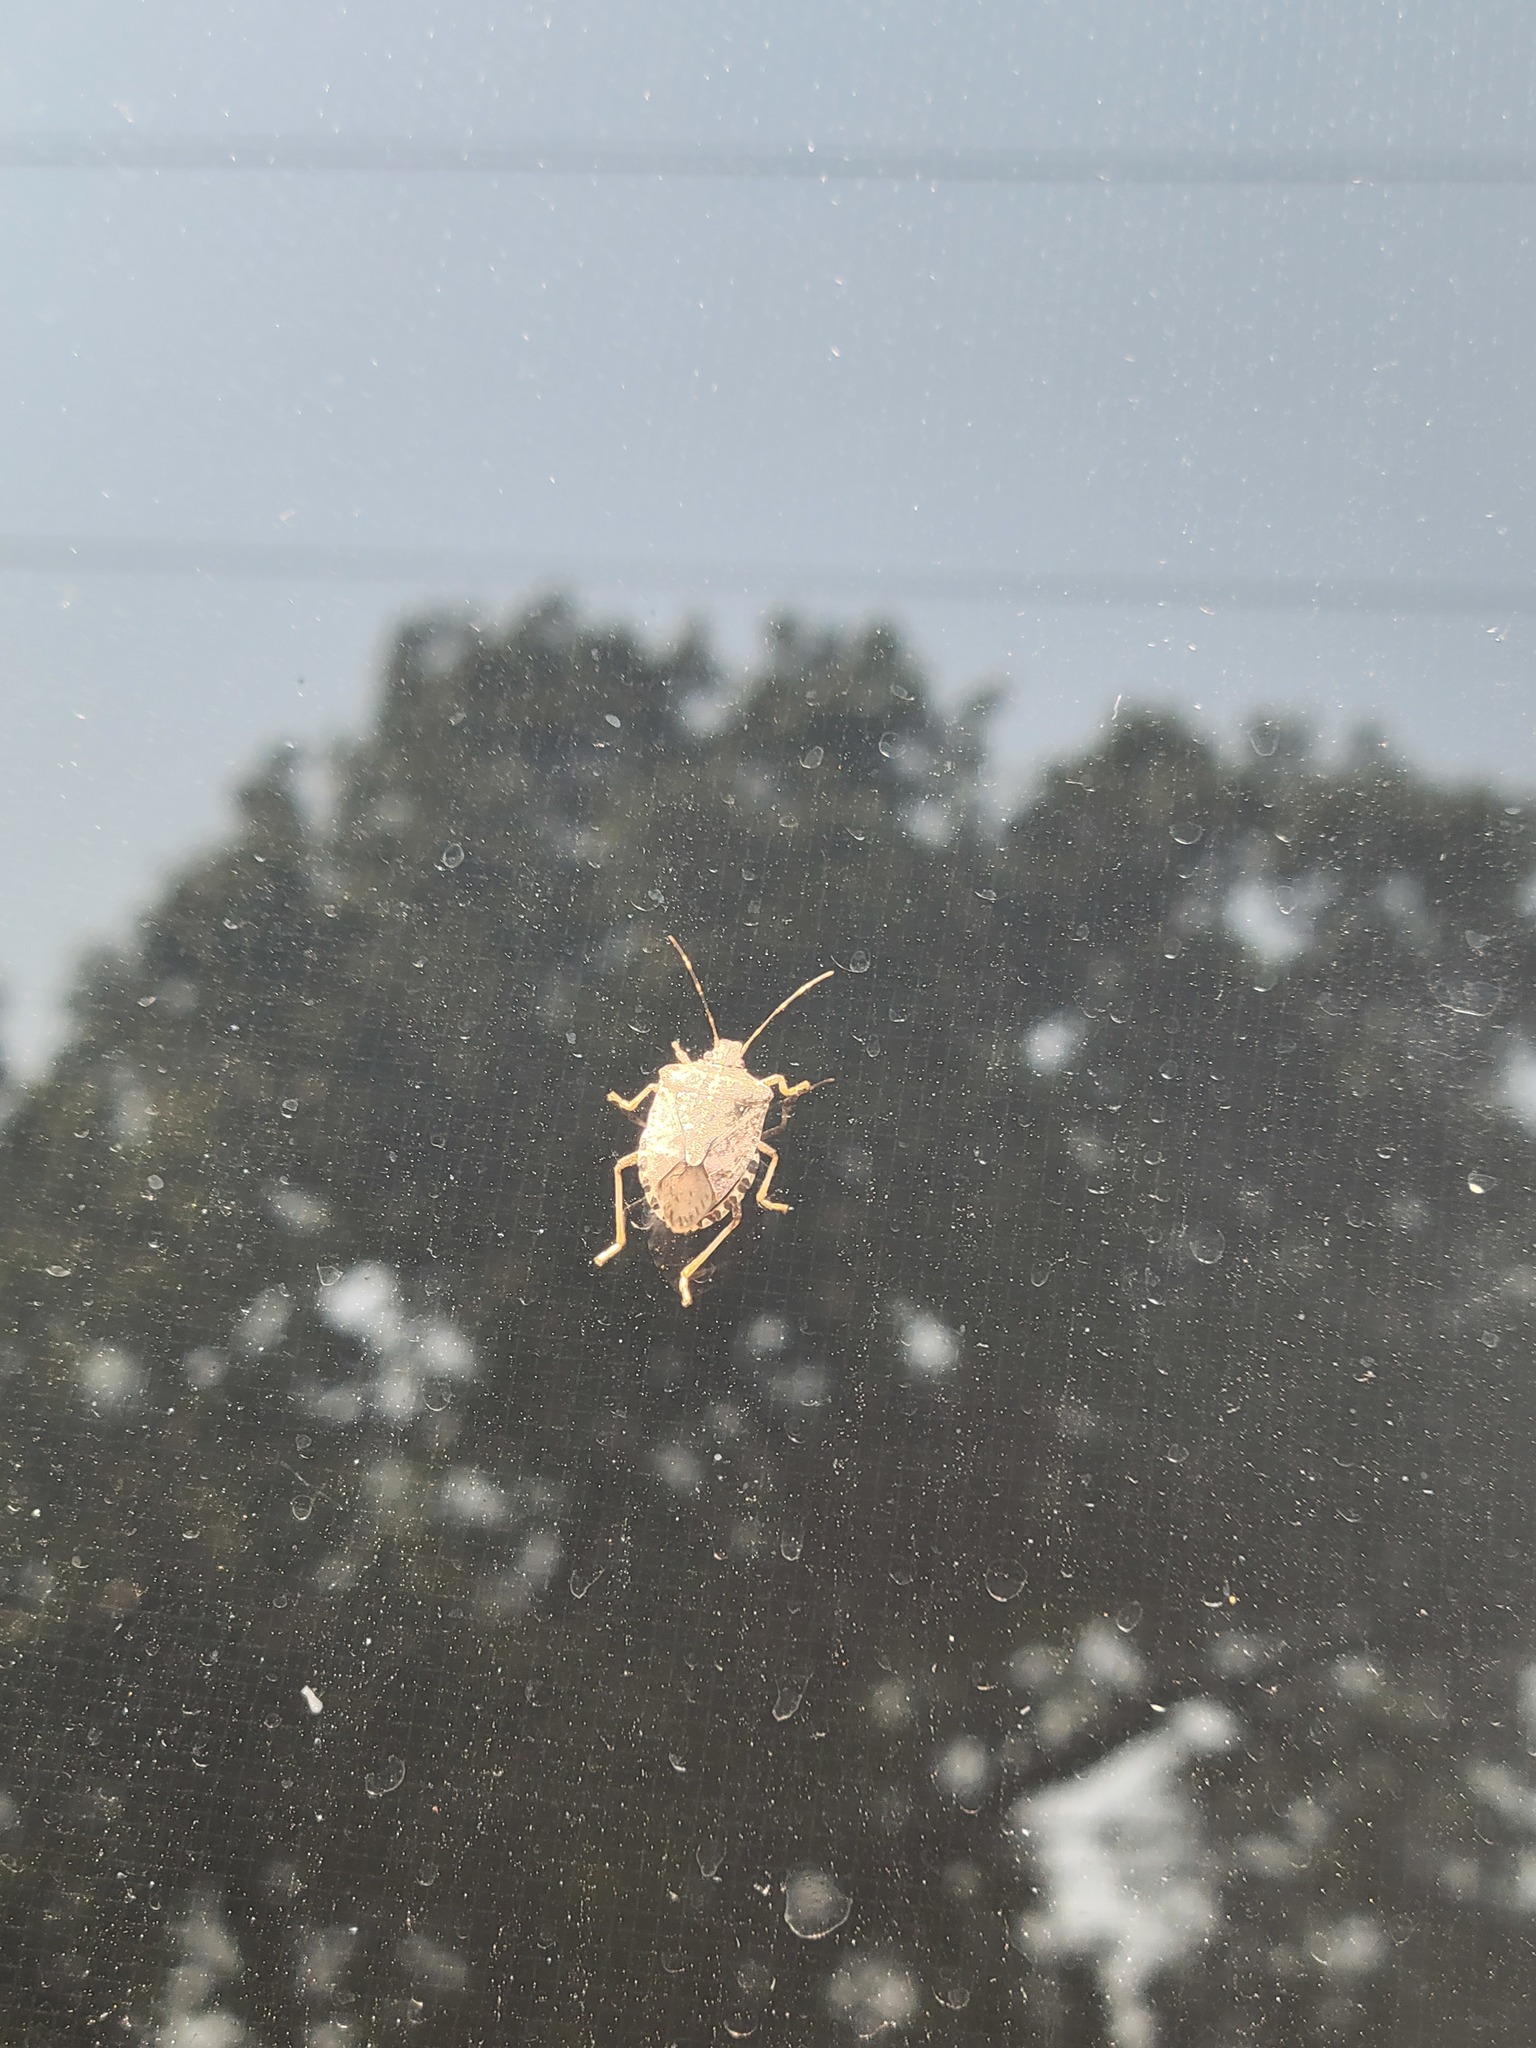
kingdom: Animalia
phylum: Arthropoda
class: Insecta
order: Hemiptera
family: Pentatomidae
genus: Halyomorpha
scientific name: Halyomorpha halys
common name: Brown marmorated stink bug
